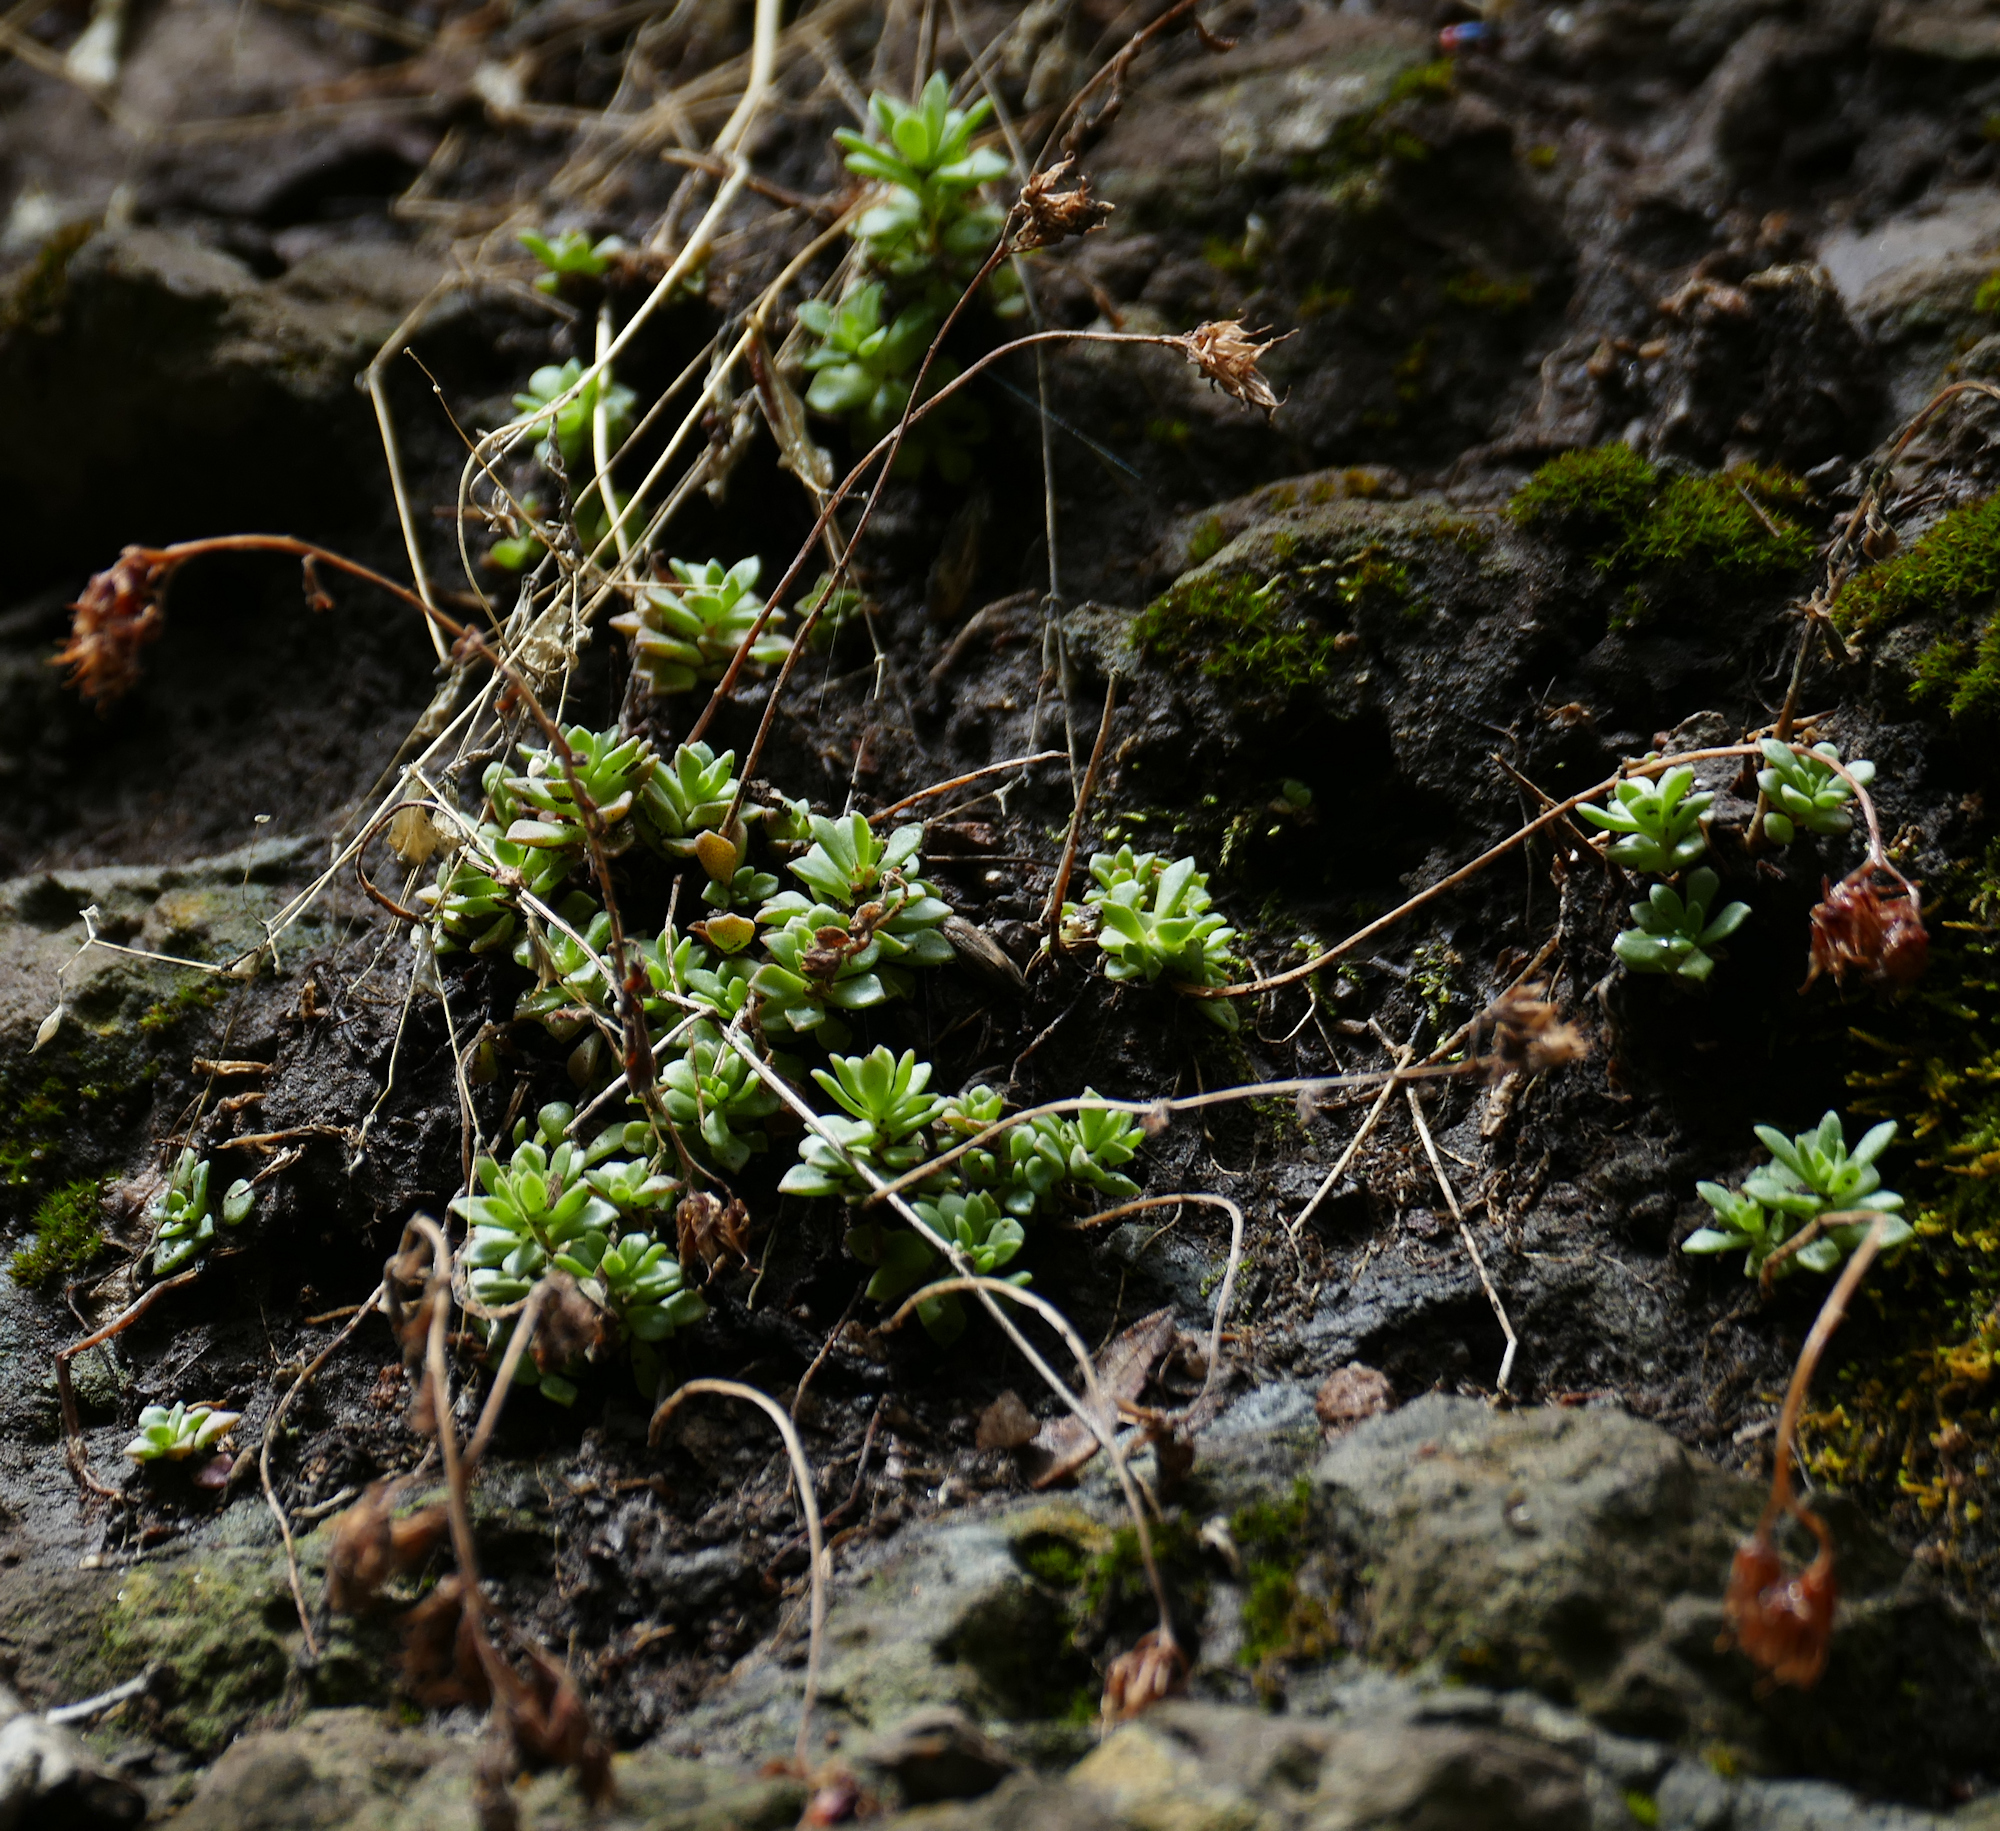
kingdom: Plantae
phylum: Tracheophyta
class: Magnoliopsida
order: Saxifragales
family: Crassulaceae
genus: Sedum
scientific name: Sedum cockerellii
